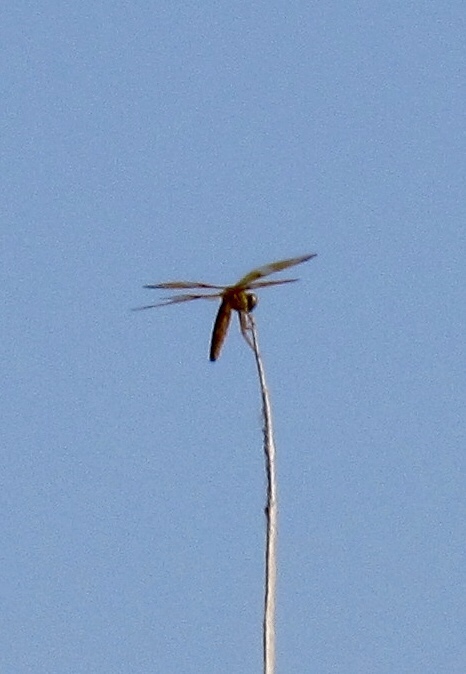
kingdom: Animalia
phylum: Arthropoda
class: Insecta
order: Odonata
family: Libellulidae
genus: Perithemis
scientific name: Perithemis intensa
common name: Mexican amberwing
